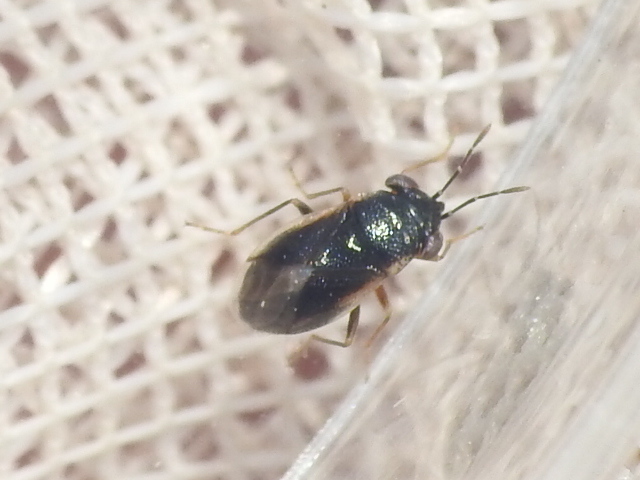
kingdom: Animalia
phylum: Arthropoda
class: Insecta
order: Hemiptera
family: Geocoridae
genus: Geocoris
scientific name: Geocoris uliginosus
